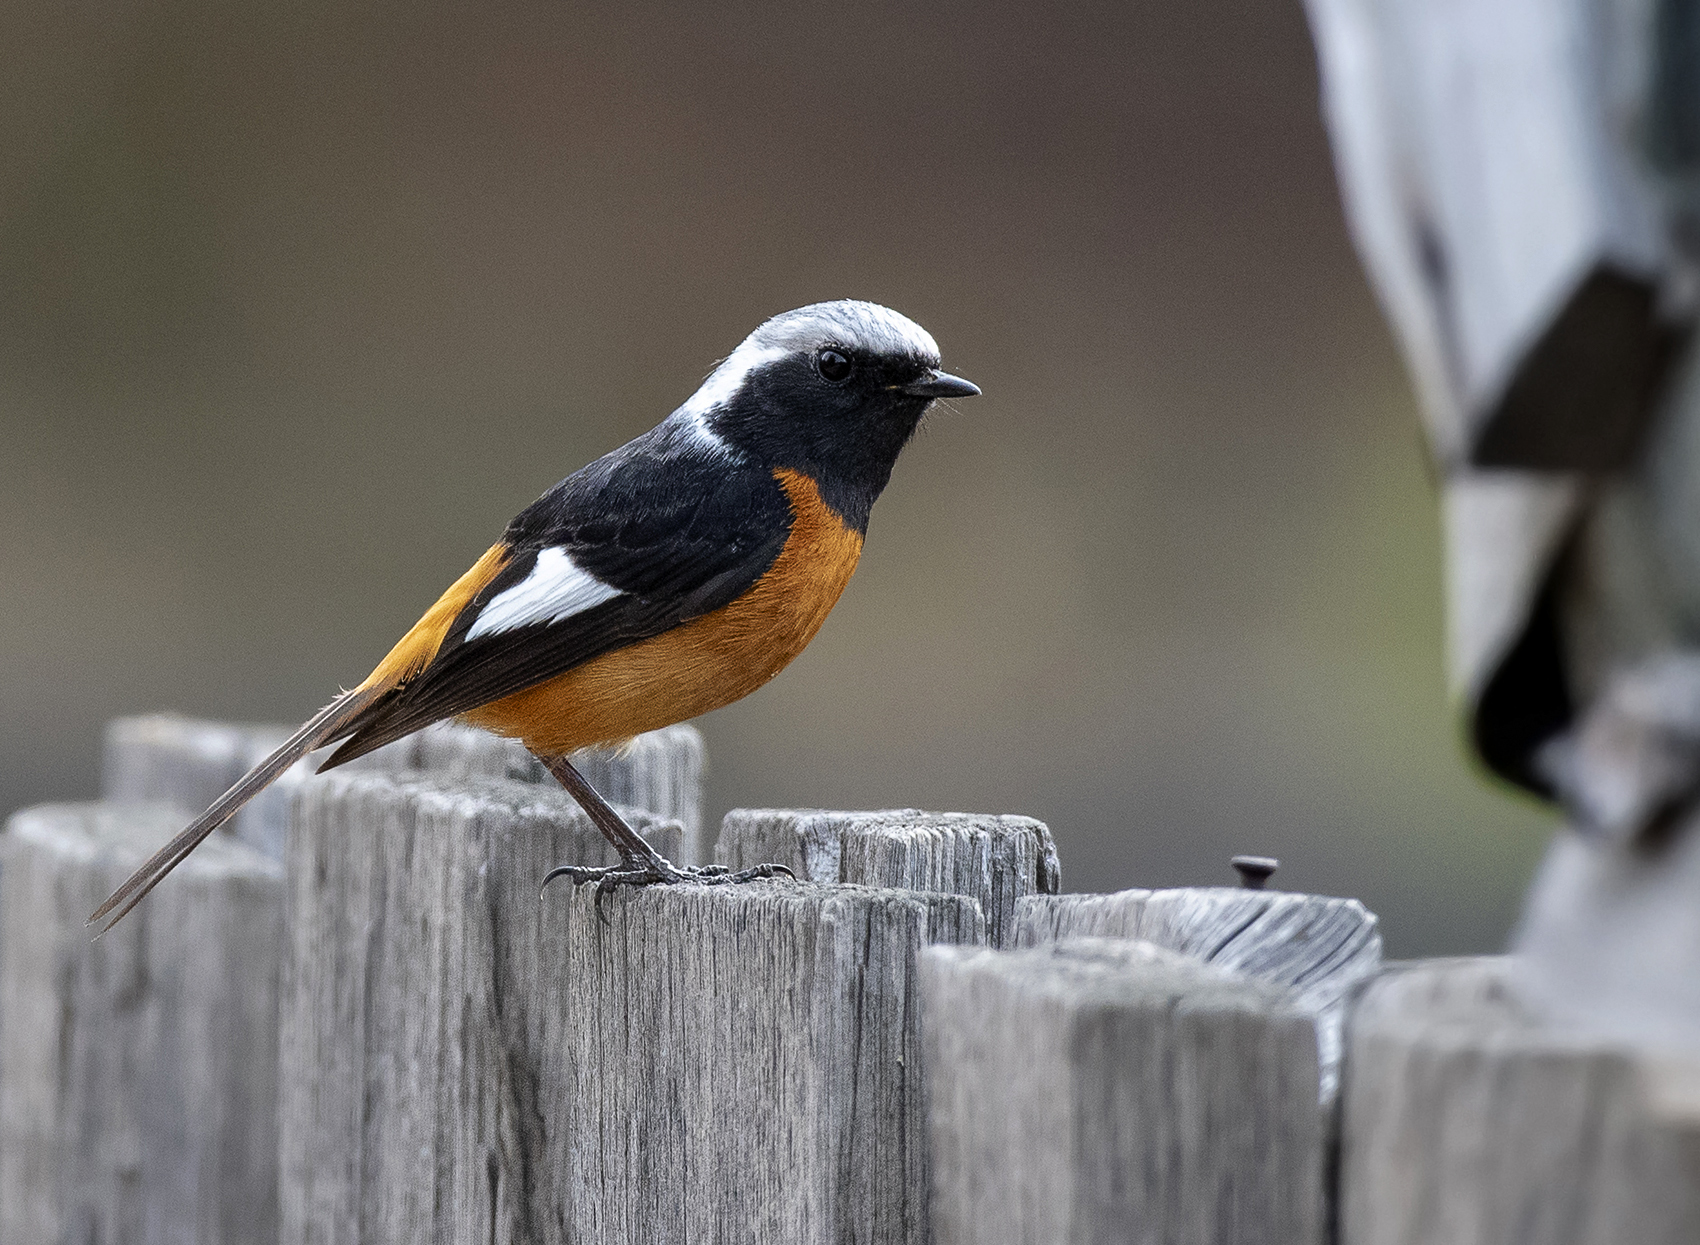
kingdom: Animalia
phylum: Chordata
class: Aves
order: Passeriformes
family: Muscicapidae
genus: Phoenicurus
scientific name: Phoenicurus auroreus
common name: Daurian redstart
